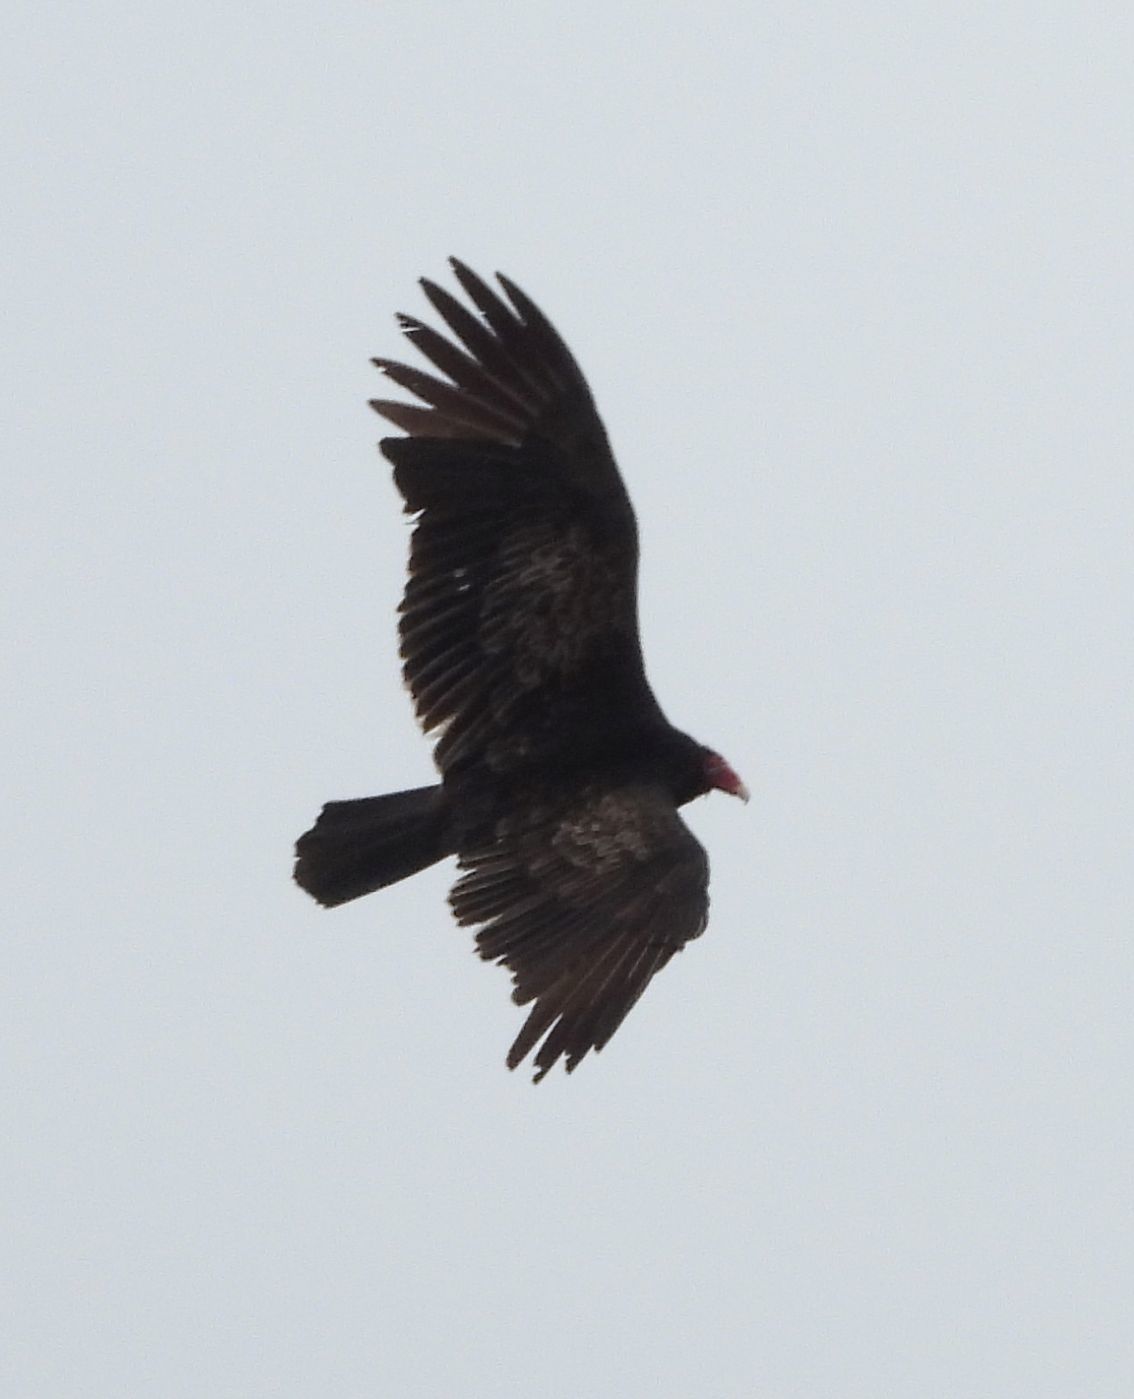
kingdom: Animalia
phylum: Chordata
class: Aves
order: Accipitriformes
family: Cathartidae
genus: Cathartes
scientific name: Cathartes aura
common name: Turkey vulture
